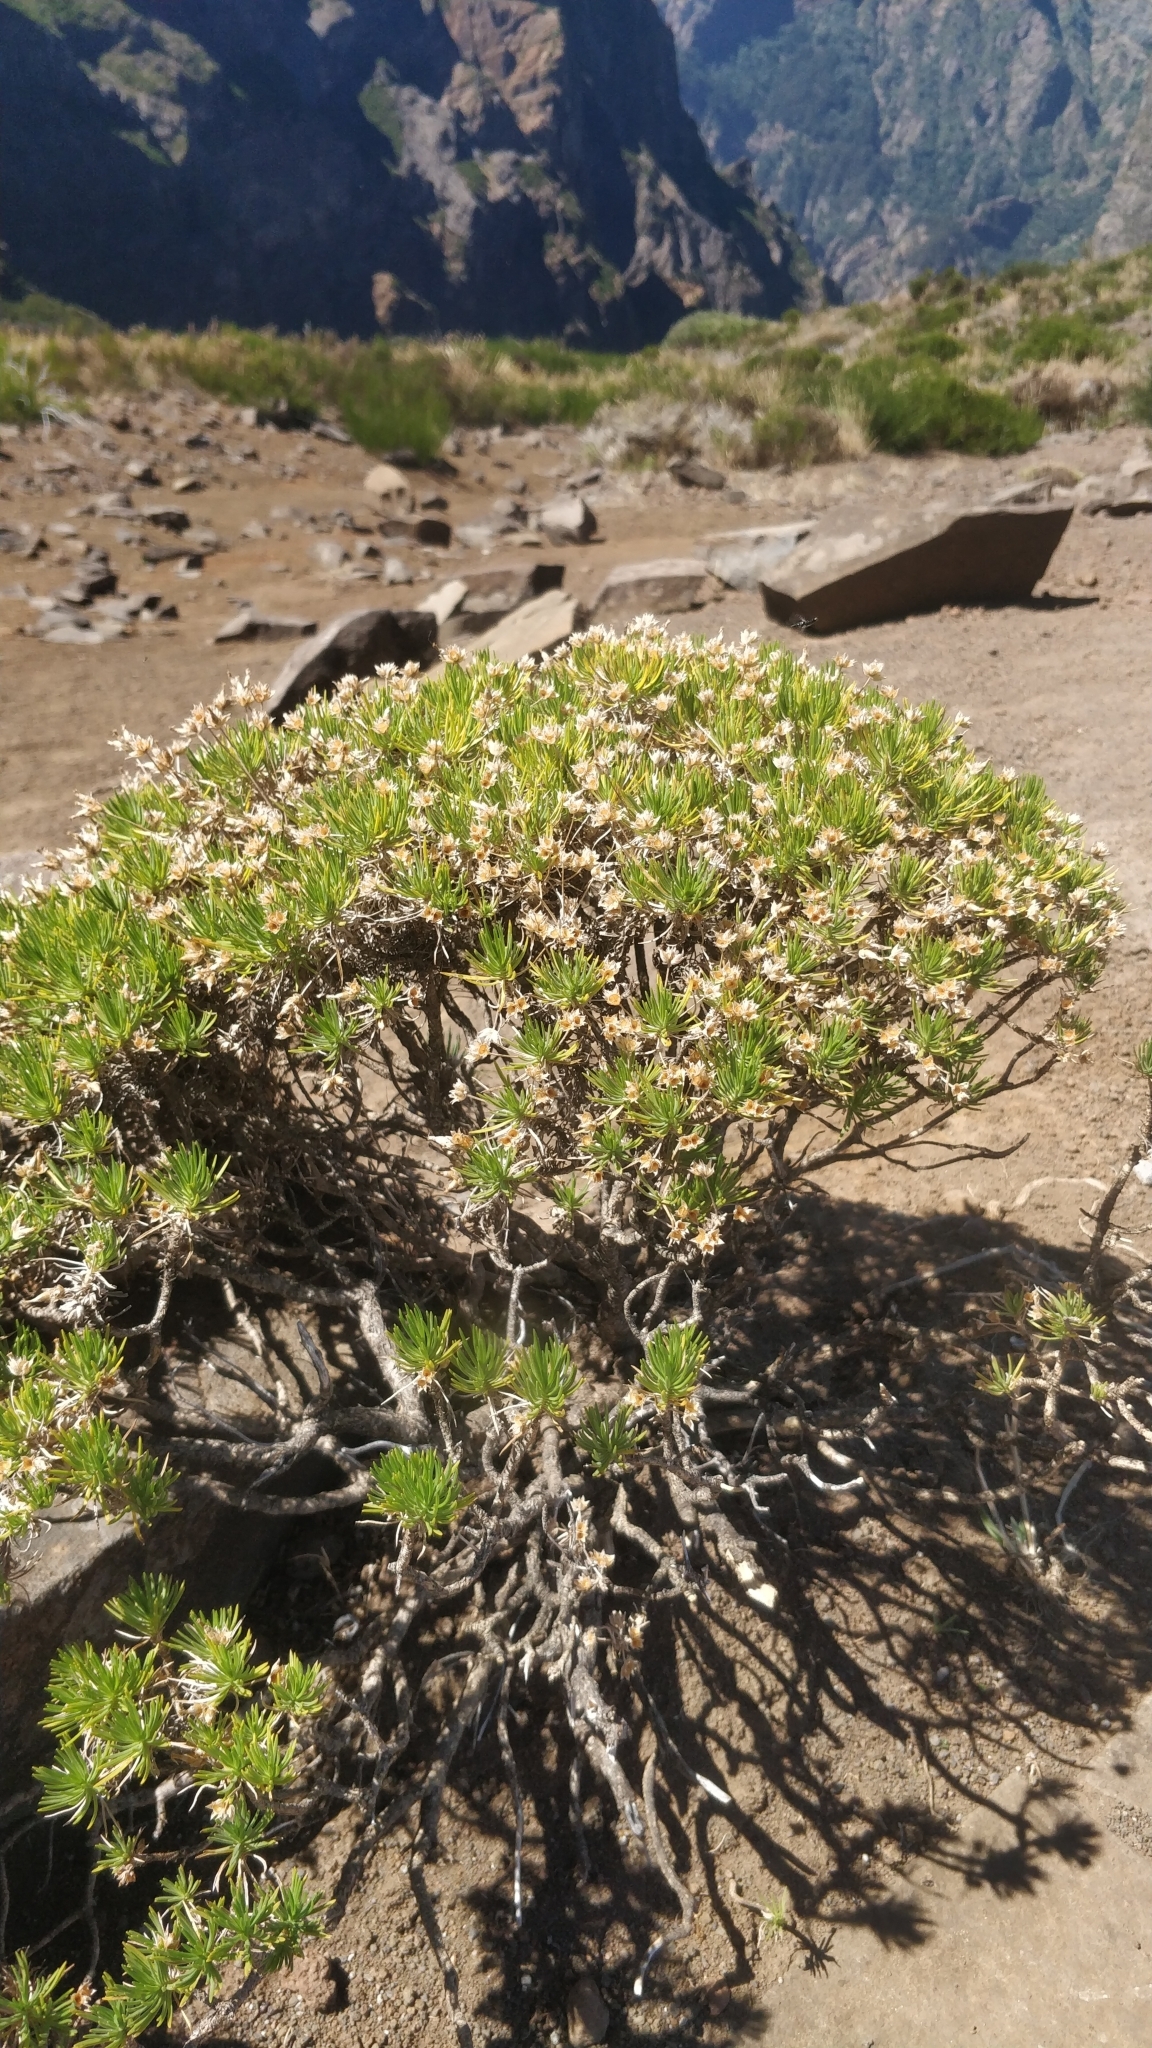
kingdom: Plantae
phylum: Tracheophyta
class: Magnoliopsida
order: Lamiales
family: Plantaginaceae
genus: Plantago
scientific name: Plantago arborescens
